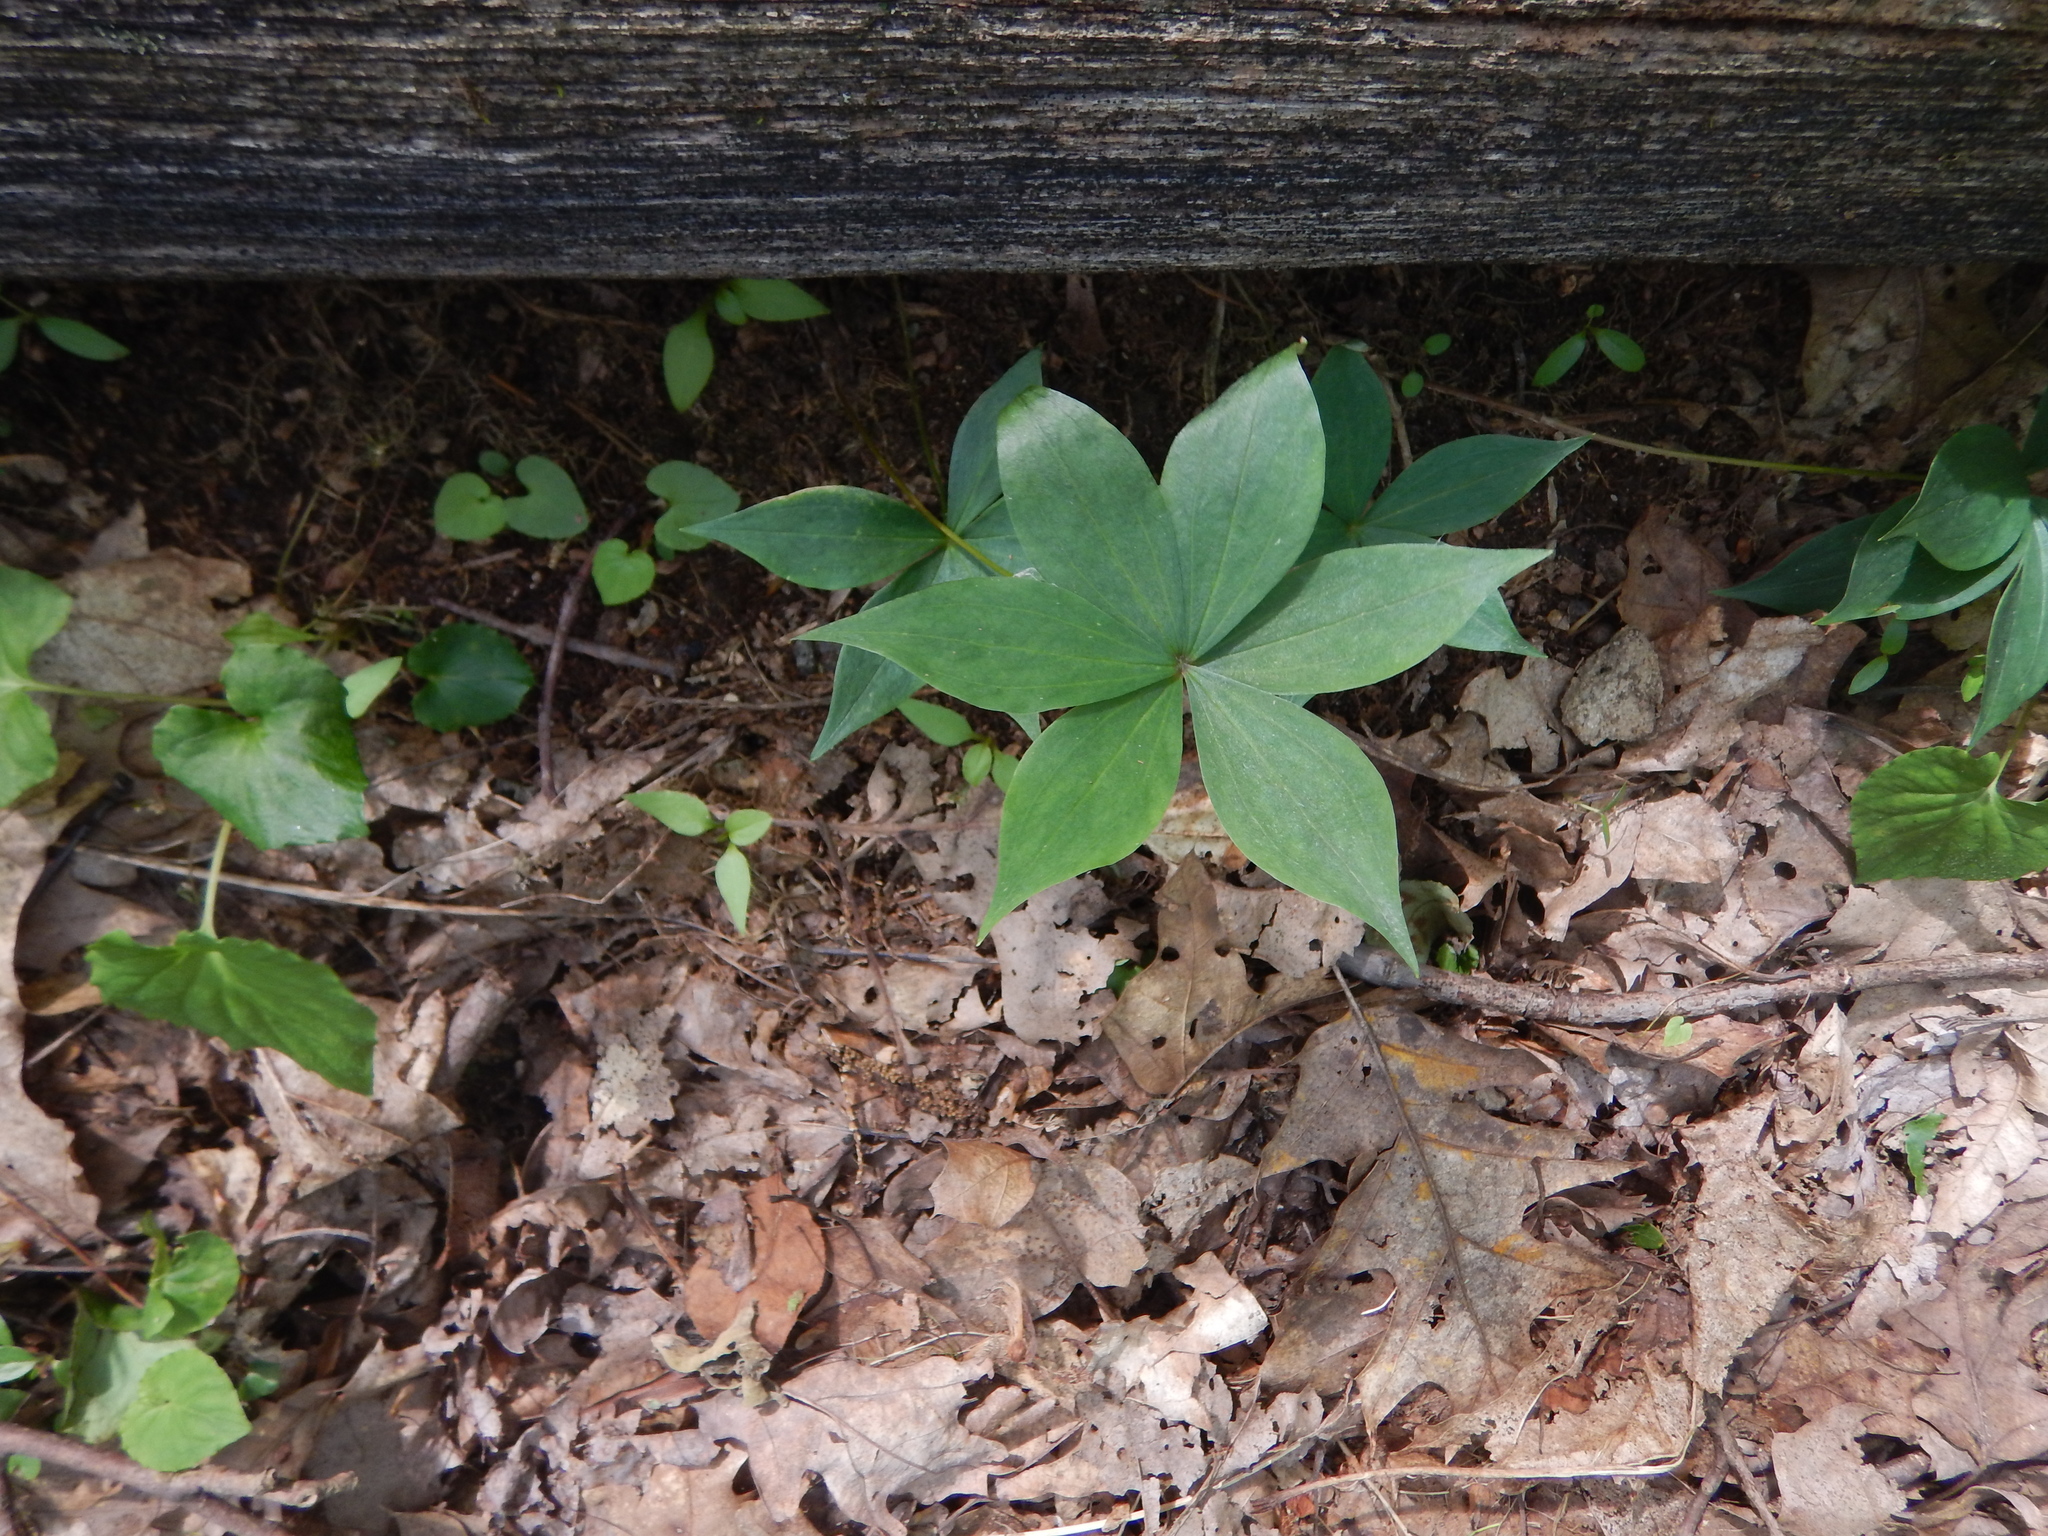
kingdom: Plantae
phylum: Tracheophyta
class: Liliopsida
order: Liliales
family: Liliaceae
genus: Medeola
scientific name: Medeola virginiana
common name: Indian cucumber-root
